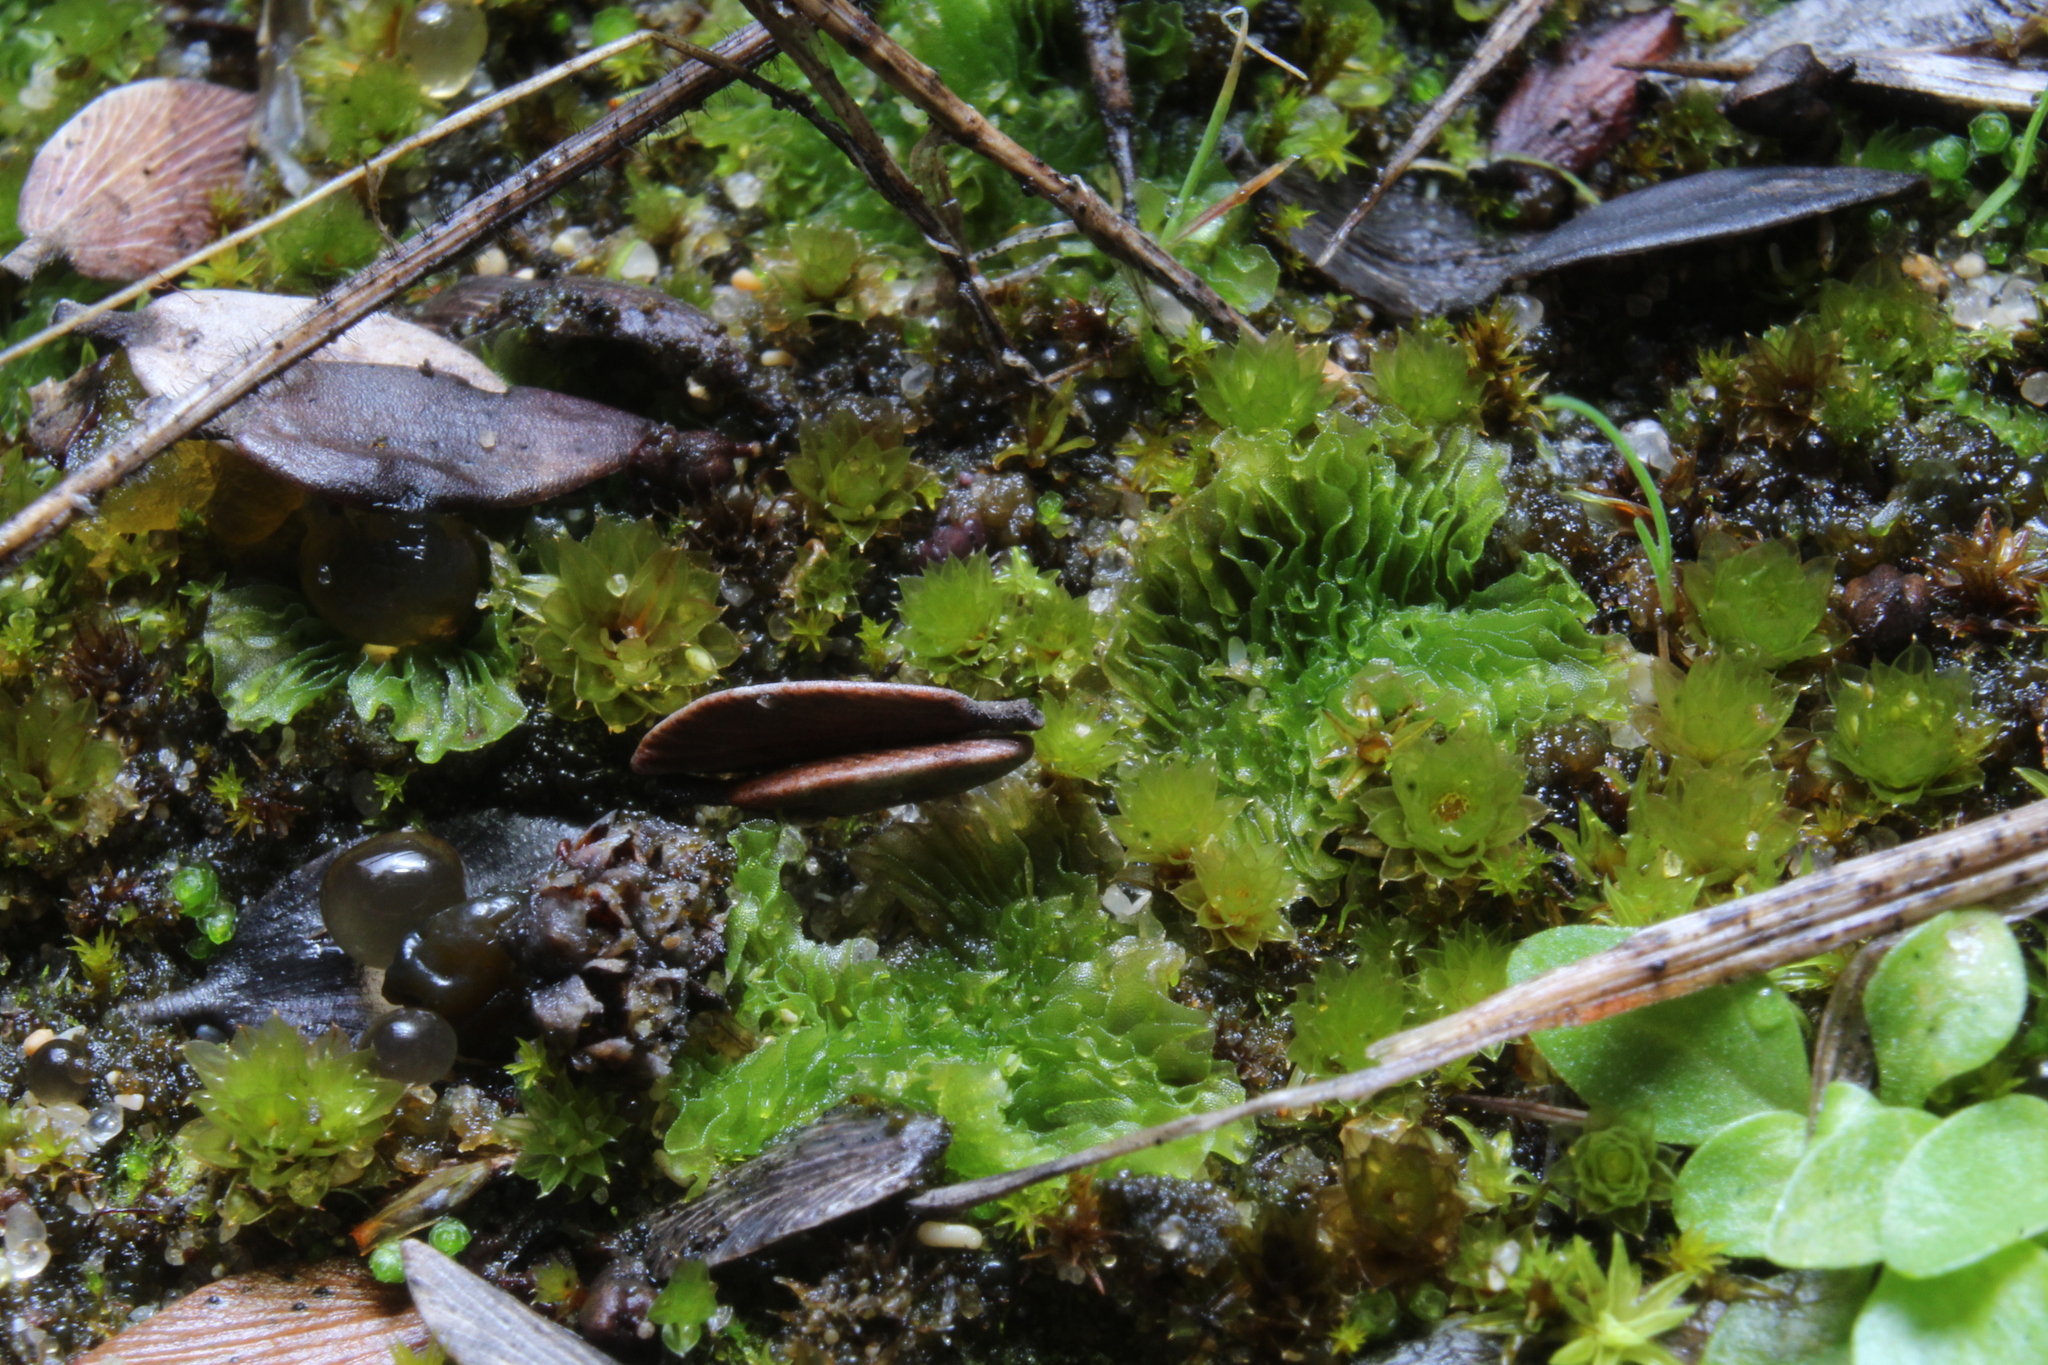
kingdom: Plantae
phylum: Marchantiophyta
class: Jungermanniopsida
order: Fossombroniales
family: Petalophyllaceae
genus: Petalophyllum
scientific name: Petalophyllum preissii
